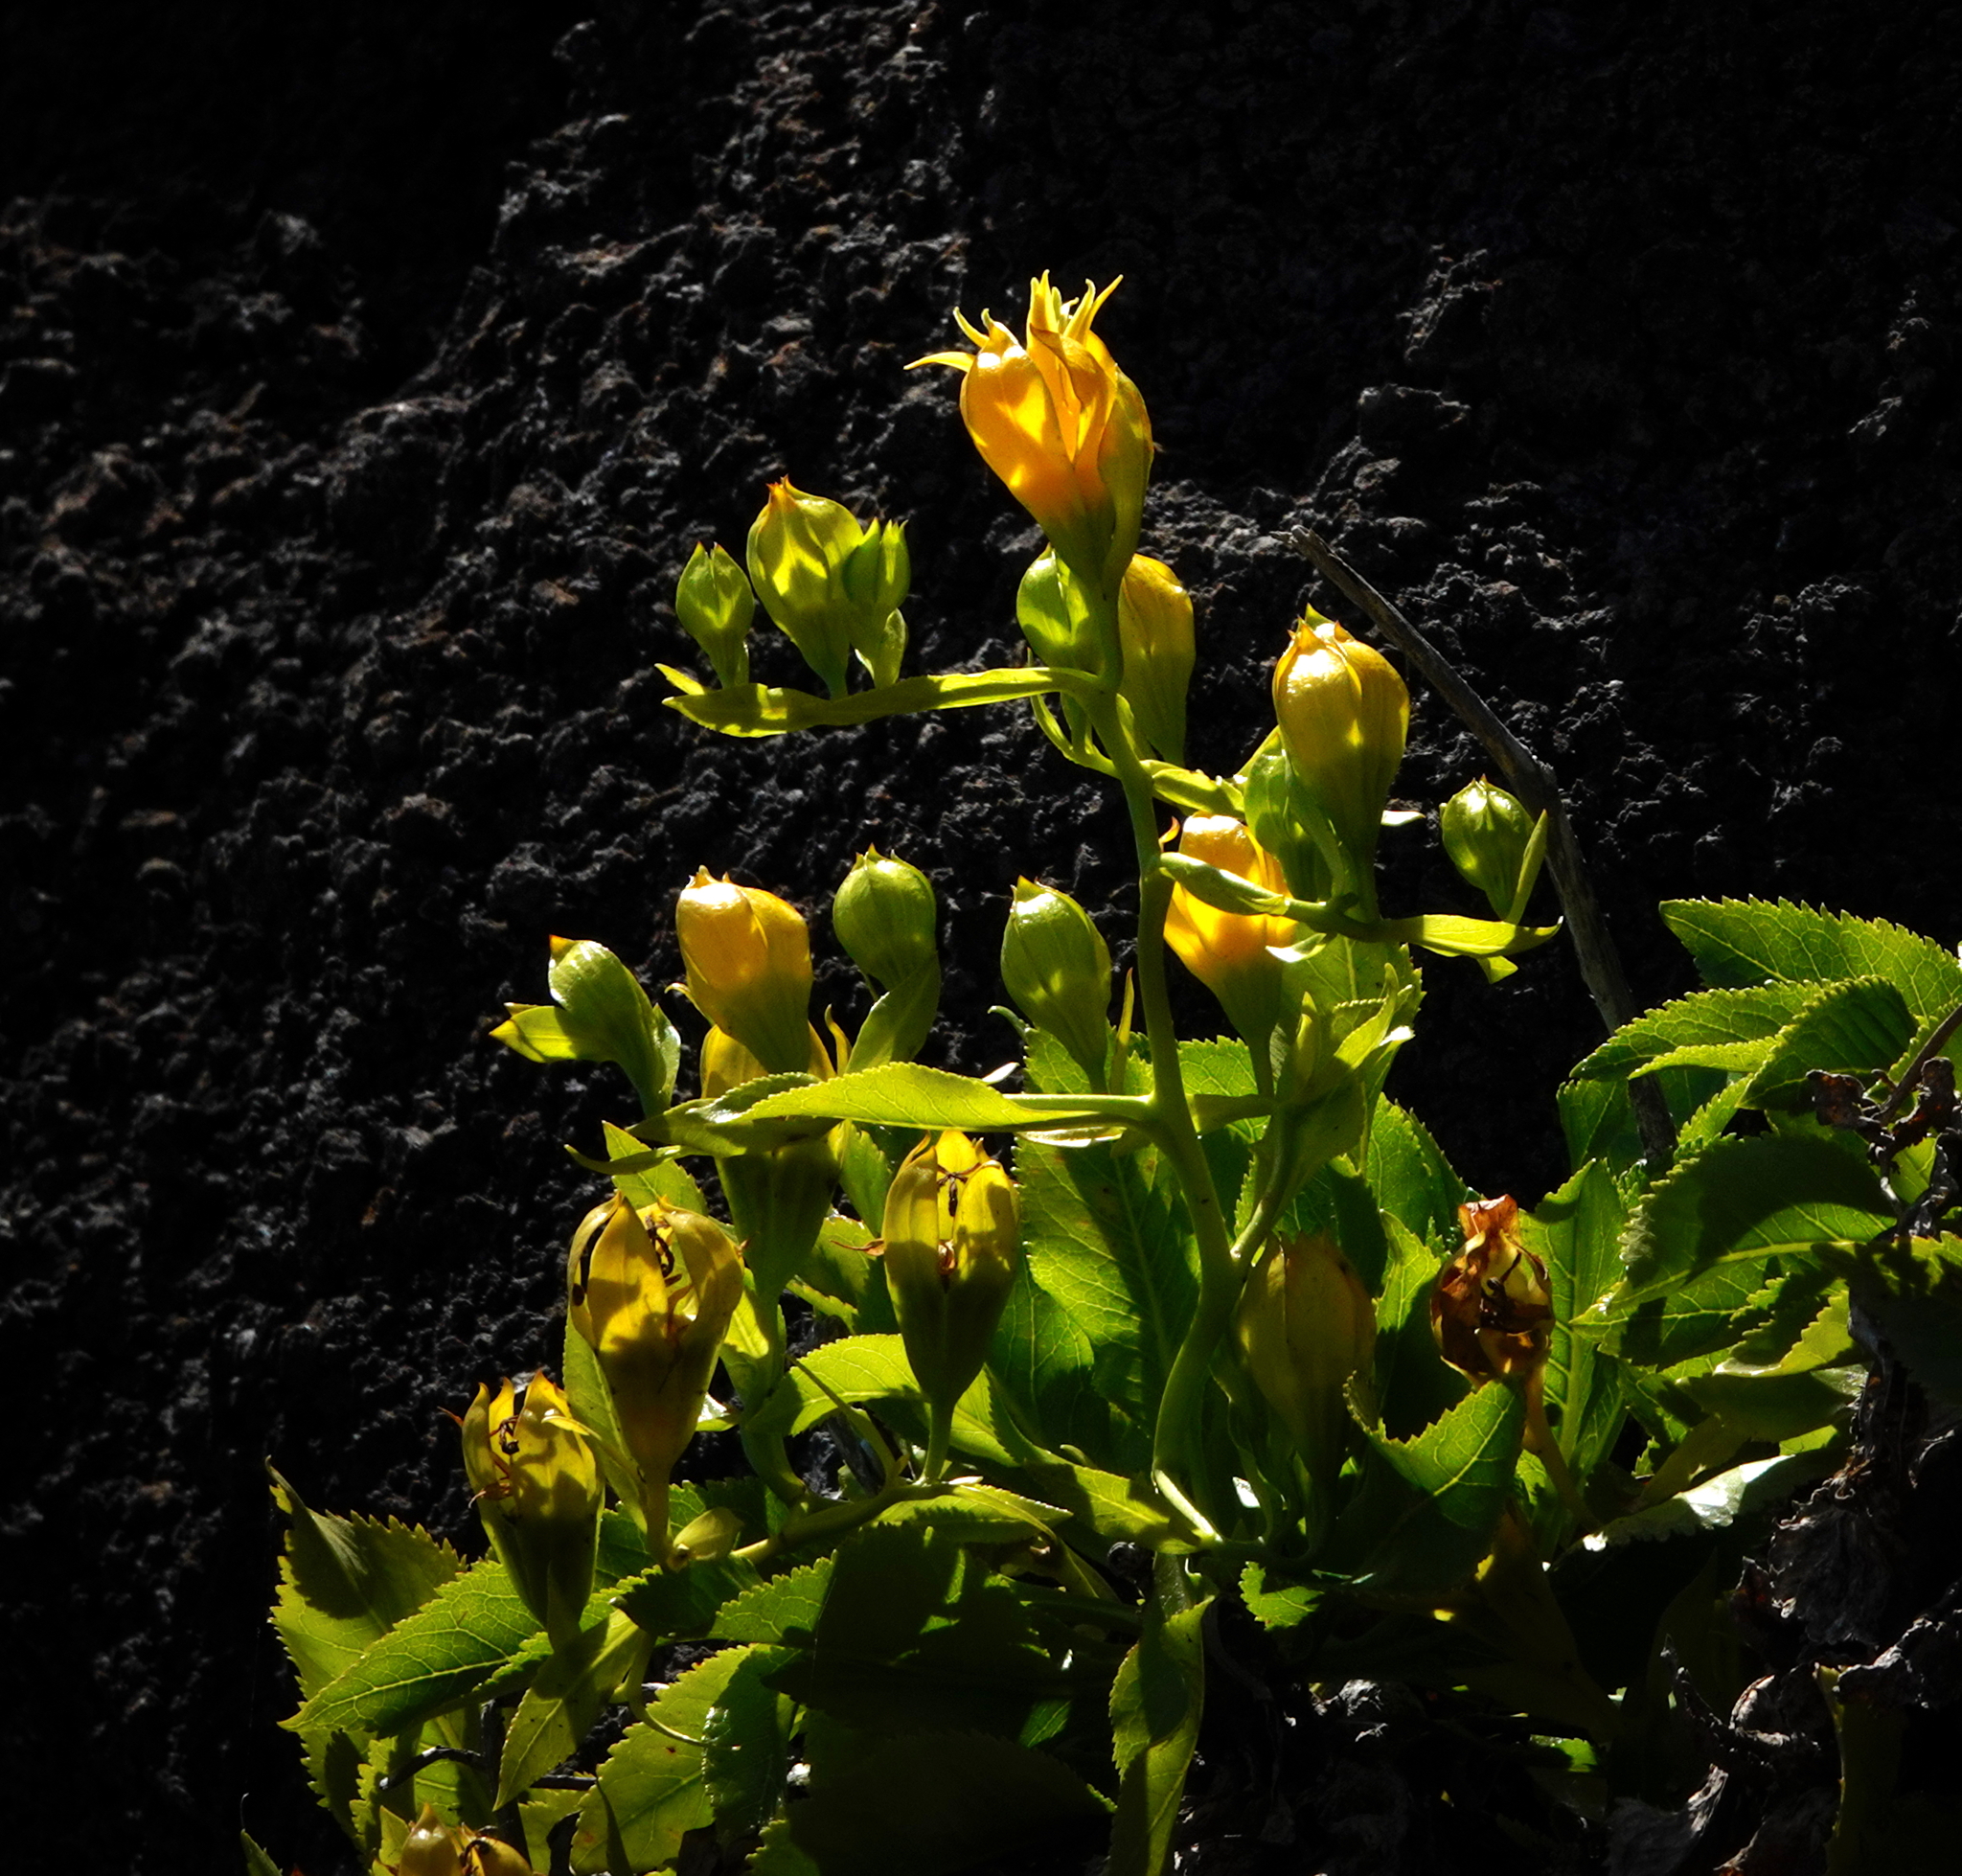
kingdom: Plantae
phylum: Tracheophyta
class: Magnoliopsida
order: Asterales
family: Campanulaceae
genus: Musschia
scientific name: Musschia aurea
